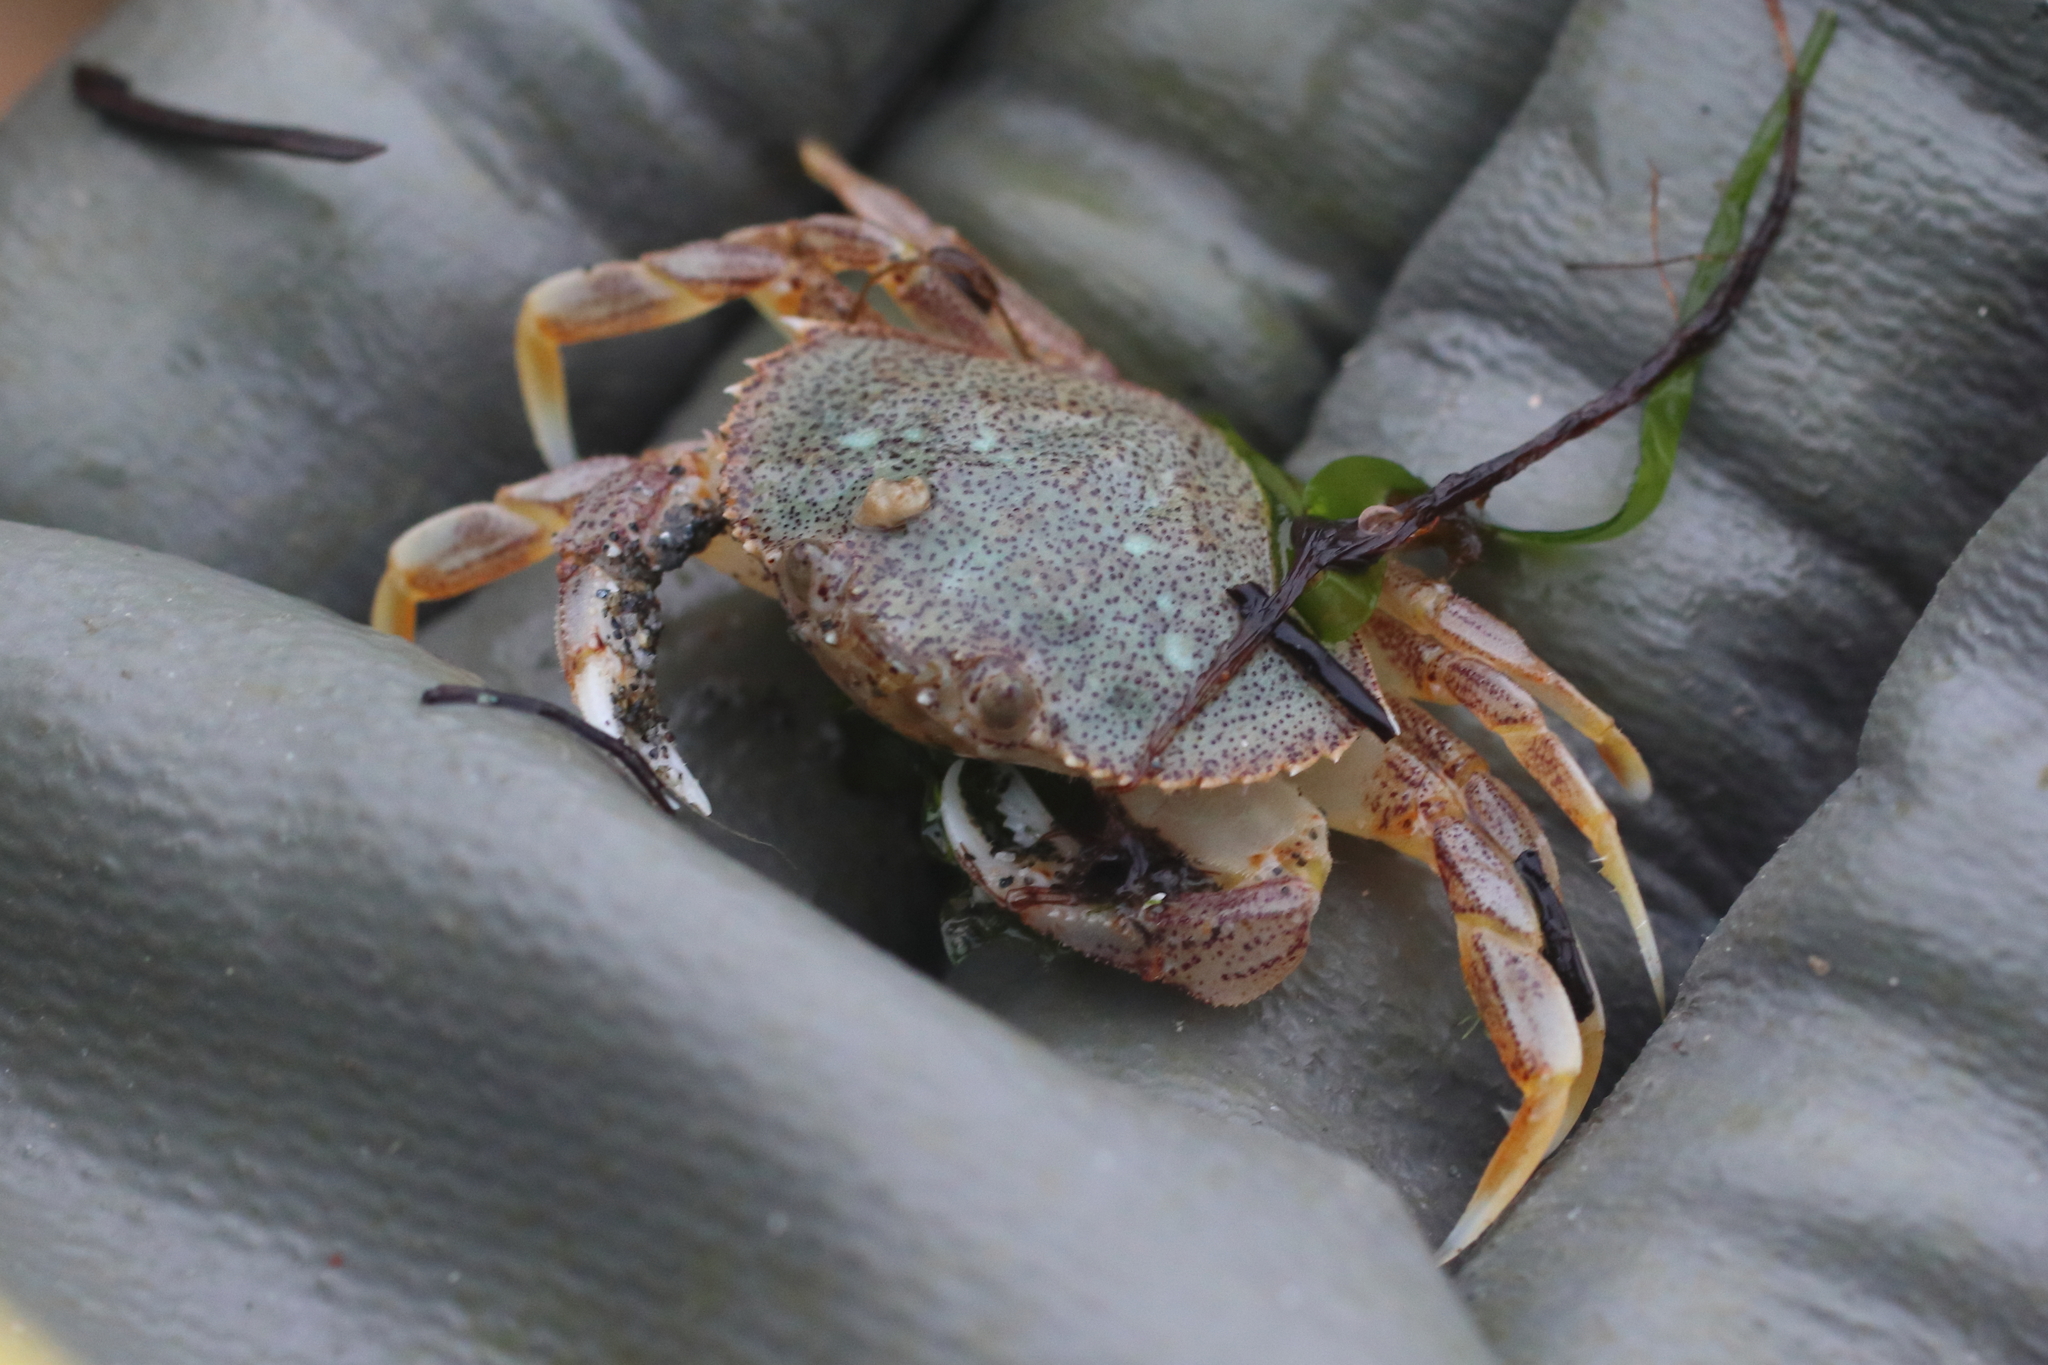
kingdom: Animalia
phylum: Arthropoda
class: Malacostraca
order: Decapoda
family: Cancridae
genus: Metacarcinus
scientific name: Metacarcinus magister
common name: Californian crab
